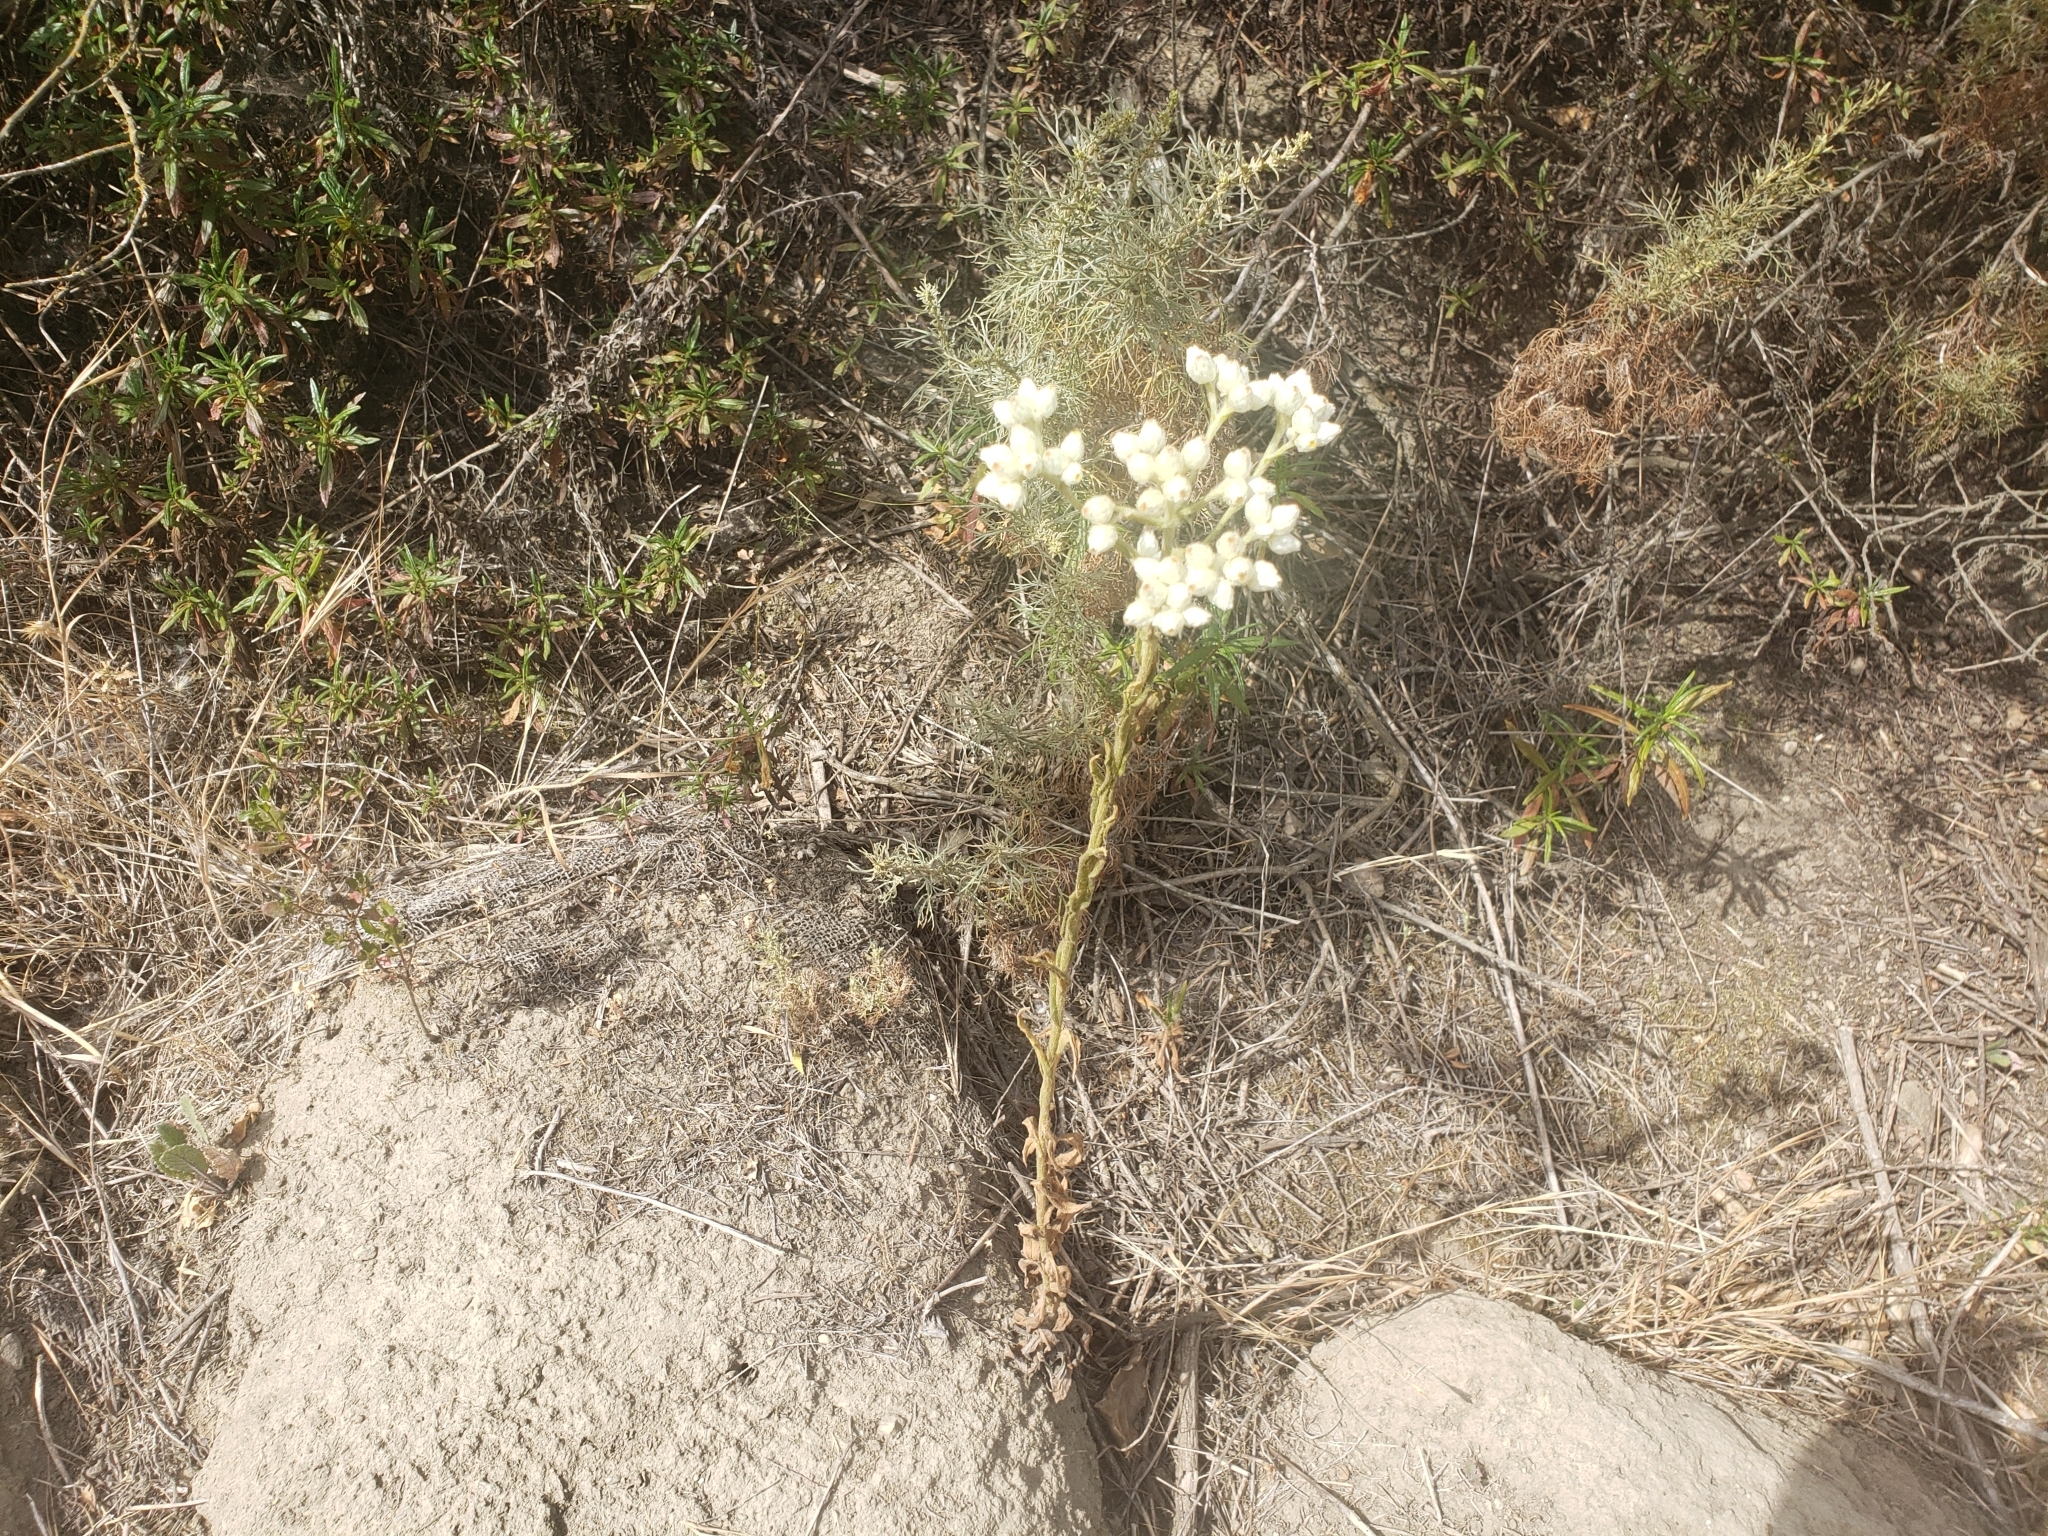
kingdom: Plantae
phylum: Tracheophyta
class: Magnoliopsida
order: Asterales
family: Asteraceae
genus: Pseudognaphalium
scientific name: Pseudognaphalium californicum
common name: California rabbit-tobacco
